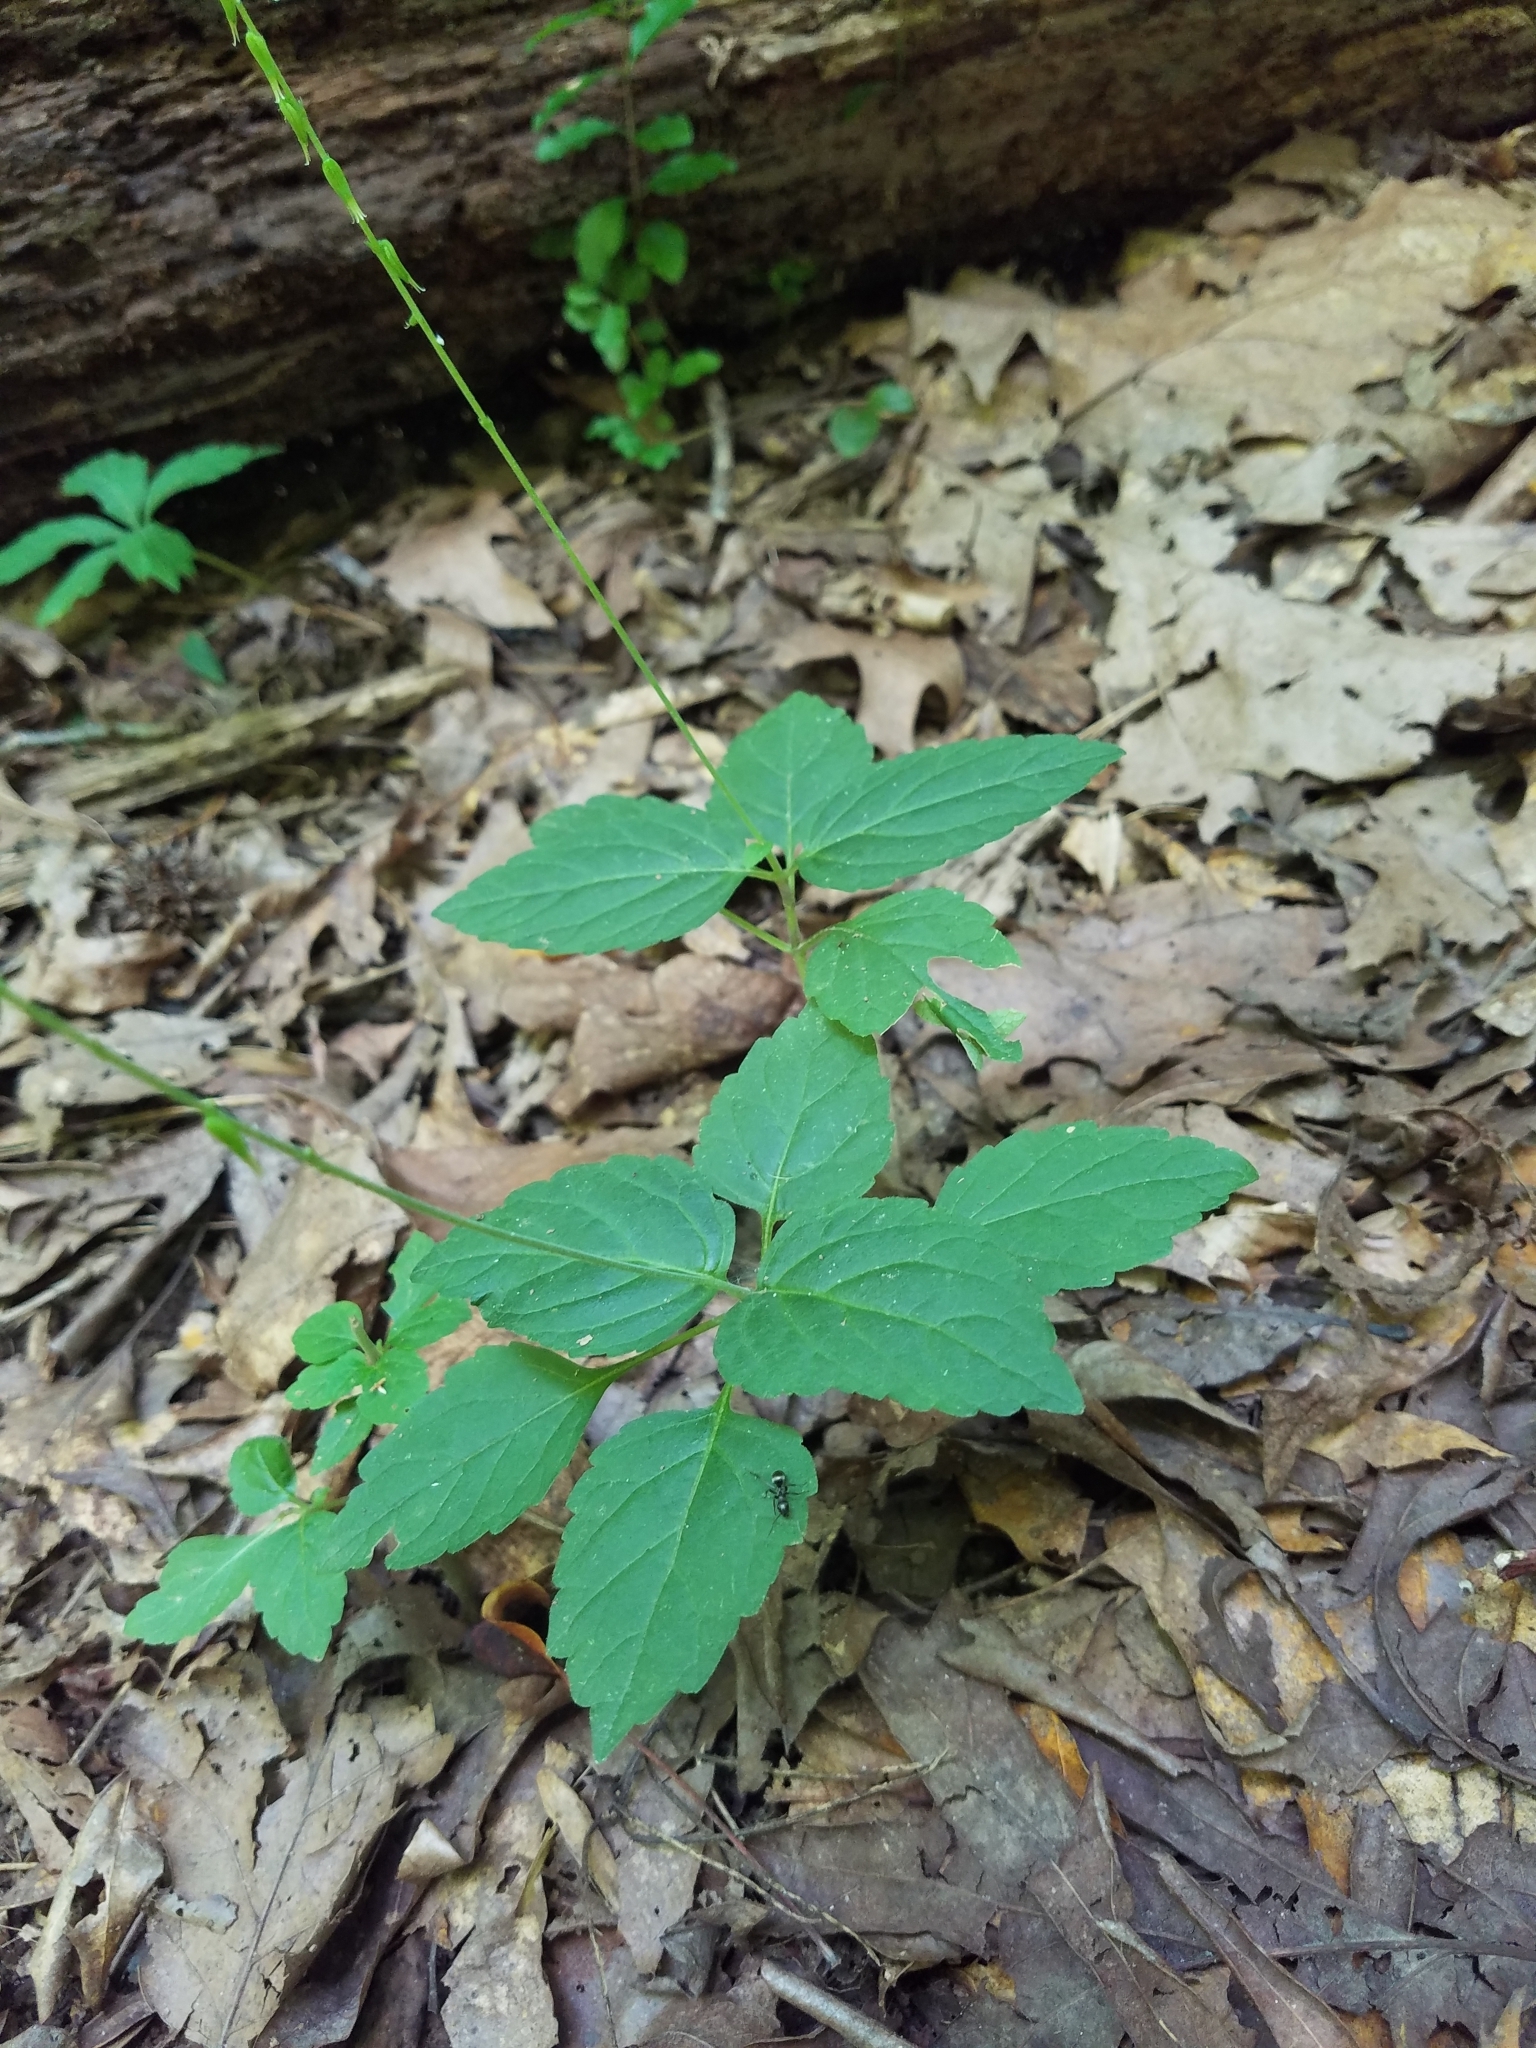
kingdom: Plantae
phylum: Tracheophyta
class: Magnoliopsida
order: Lamiales
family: Phrymaceae
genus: Phryma
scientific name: Phryma leptostachya
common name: American lopseed
